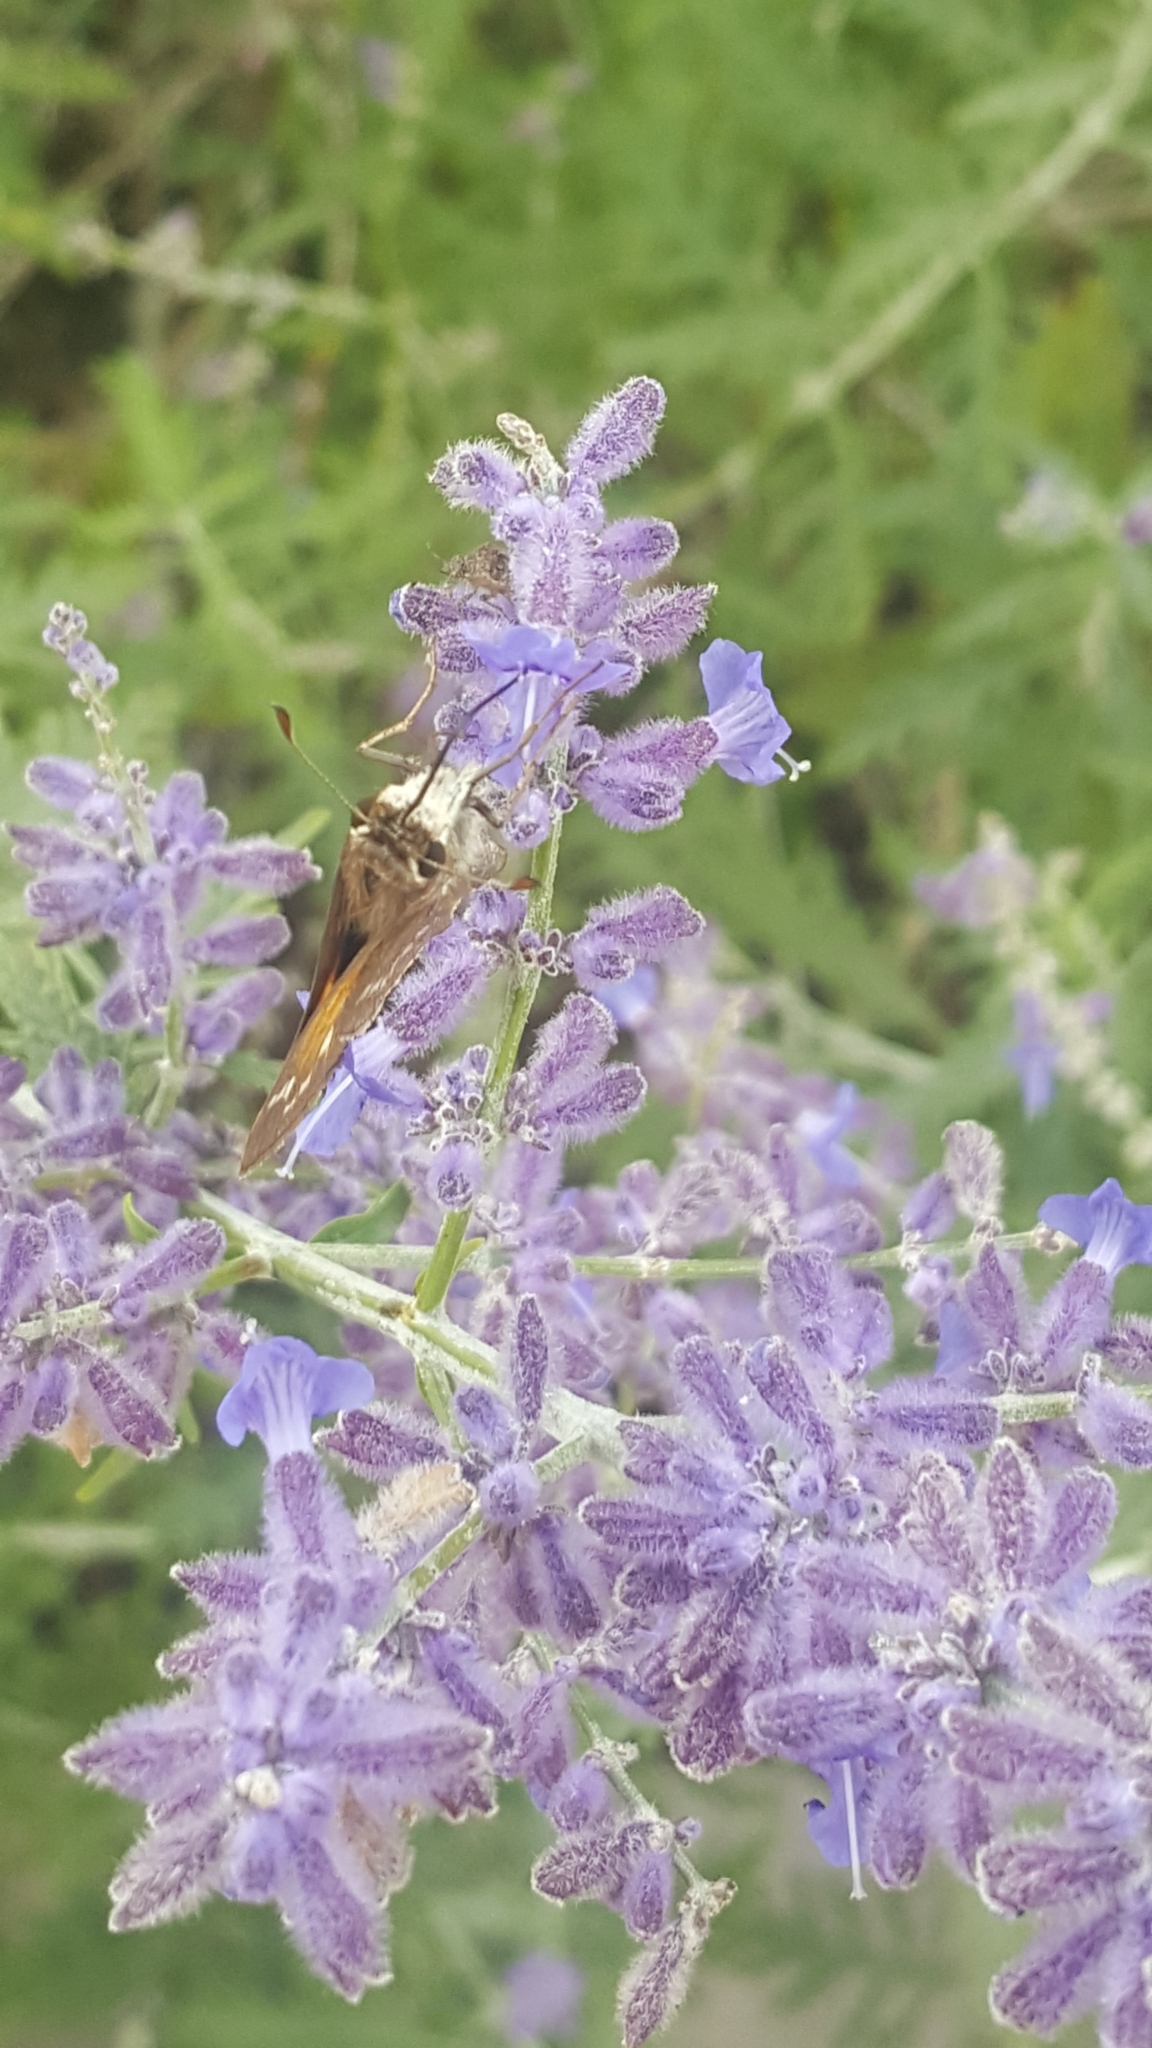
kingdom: Animalia
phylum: Arthropoda
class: Insecta
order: Lepidoptera
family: Hesperiidae
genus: Atalopedes
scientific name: Atalopedes
